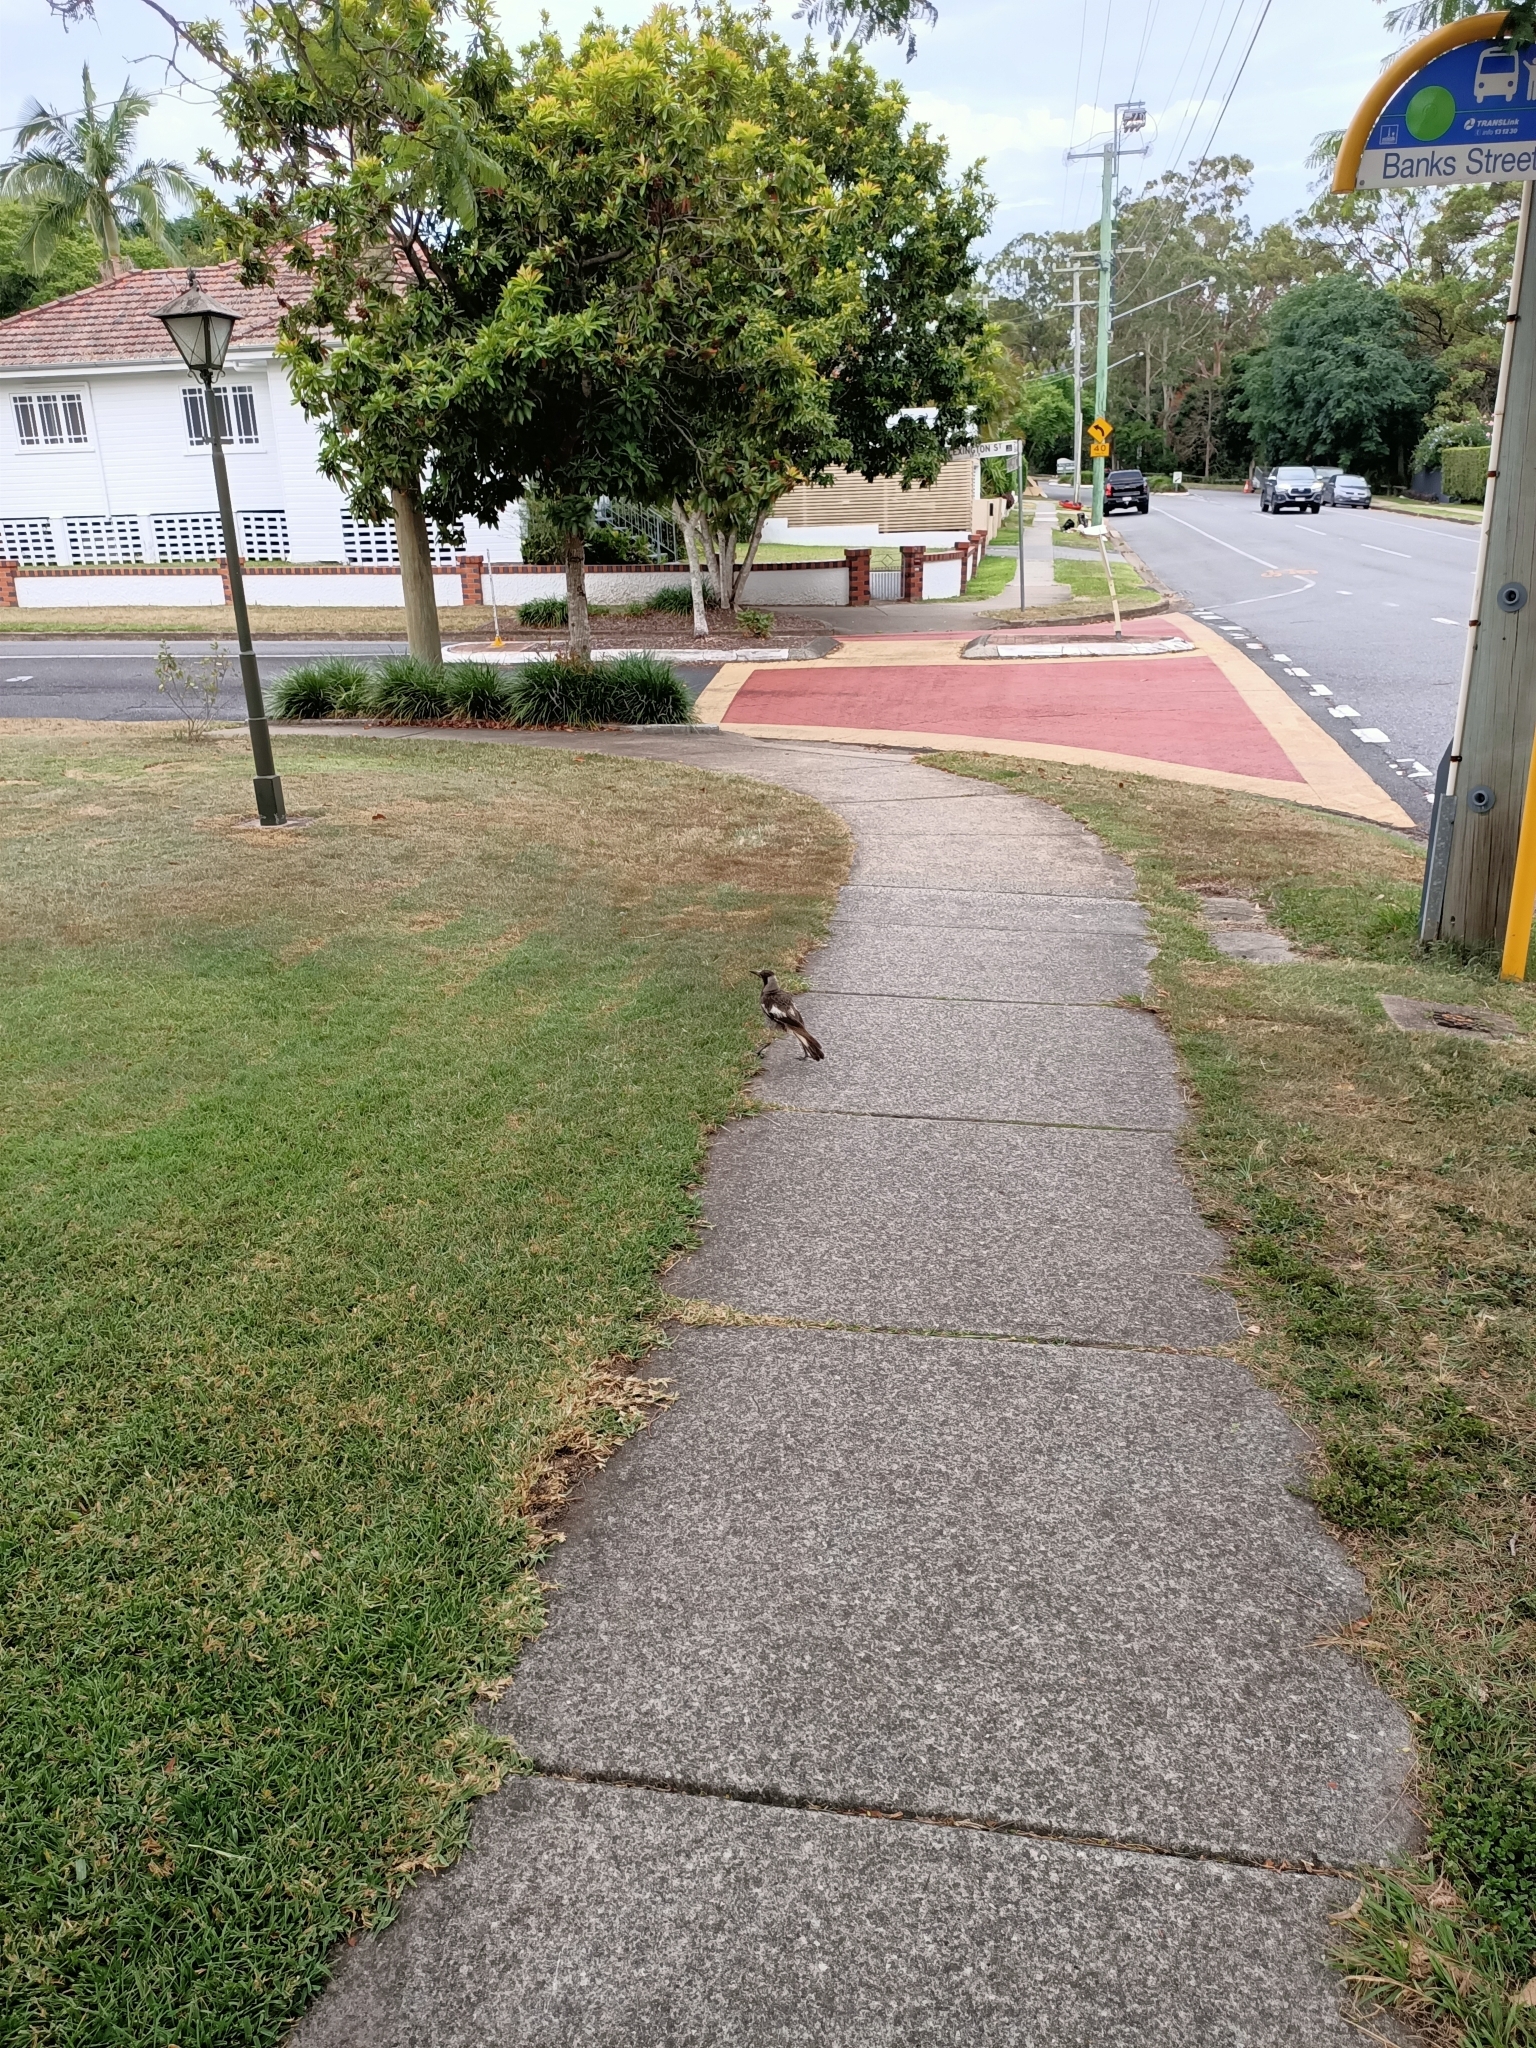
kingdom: Animalia
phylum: Chordata
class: Aves
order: Passeriformes
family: Cracticidae
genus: Gymnorhina
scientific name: Gymnorhina tibicen
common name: Australian magpie
